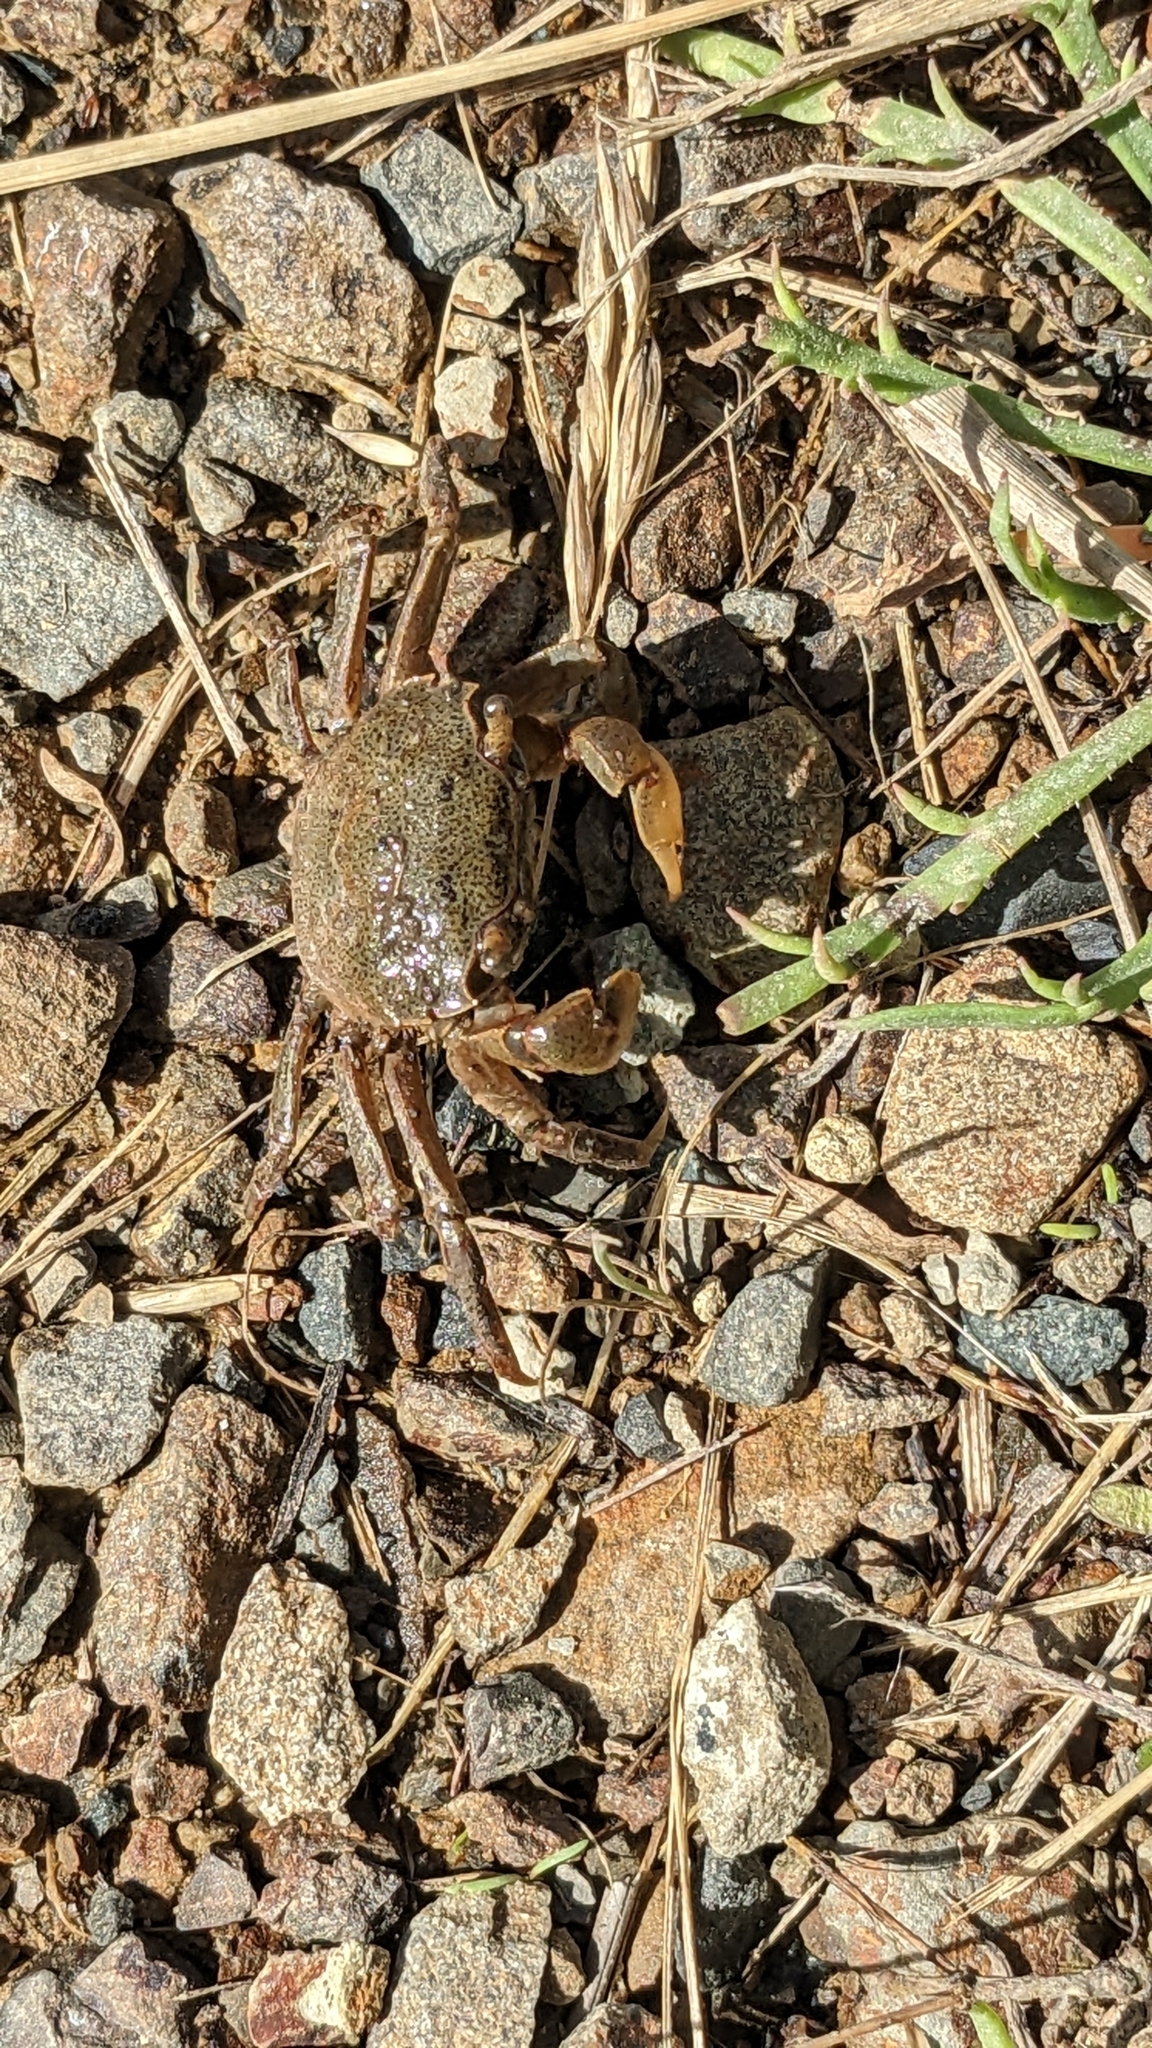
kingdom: Animalia
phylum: Arthropoda
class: Malacostraca
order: Decapoda
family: Varunidae
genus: Austrohelice
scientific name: Austrohelice crassa
